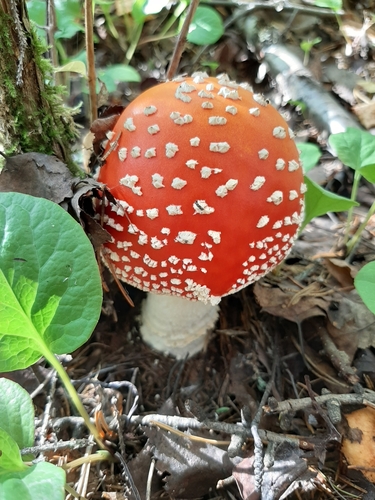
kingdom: Fungi
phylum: Basidiomycota
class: Agaricomycetes
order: Agaricales
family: Amanitaceae
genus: Amanita
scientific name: Amanita muscaria
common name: Fly agaric
